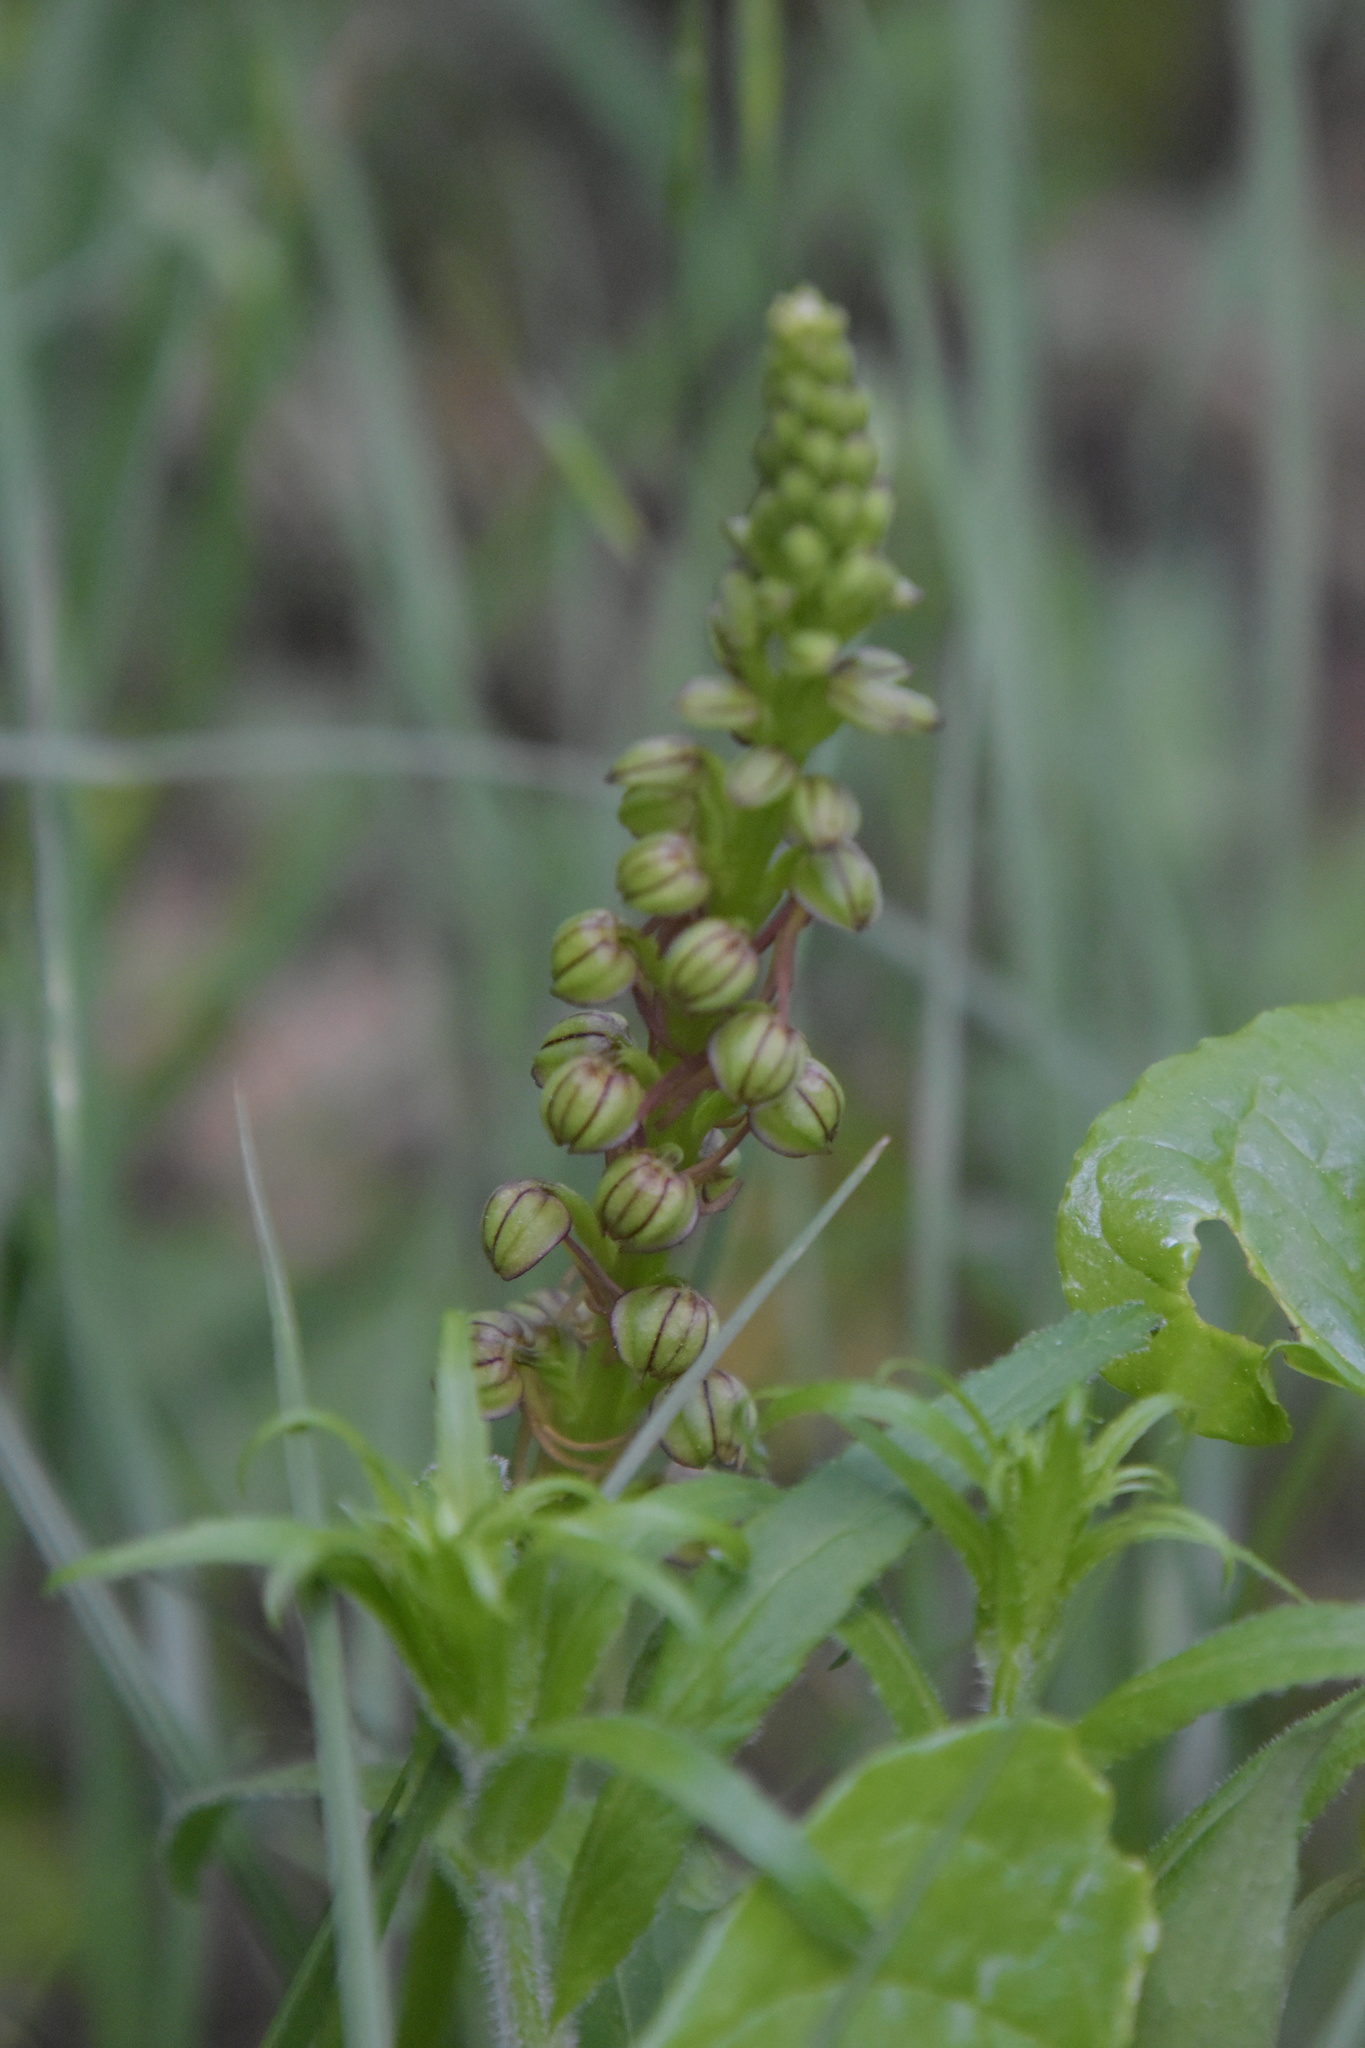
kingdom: Plantae
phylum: Tracheophyta
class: Liliopsida
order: Asparagales
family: Orchidaceae
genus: Orchis
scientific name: Orchis anthropophora
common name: Man orchid
